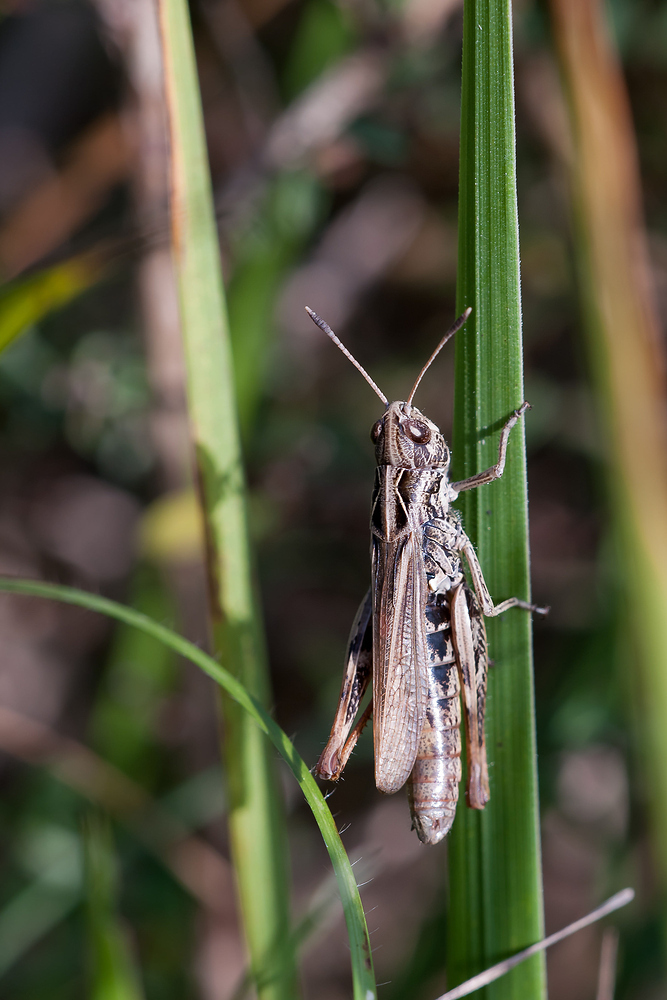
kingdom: Animalia
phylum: Arthropoda
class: Insecta
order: Orthoptera
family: Acrididae
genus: Gomphocerippus
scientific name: Gomphocerippus rufus
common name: Rufous grasshopper
